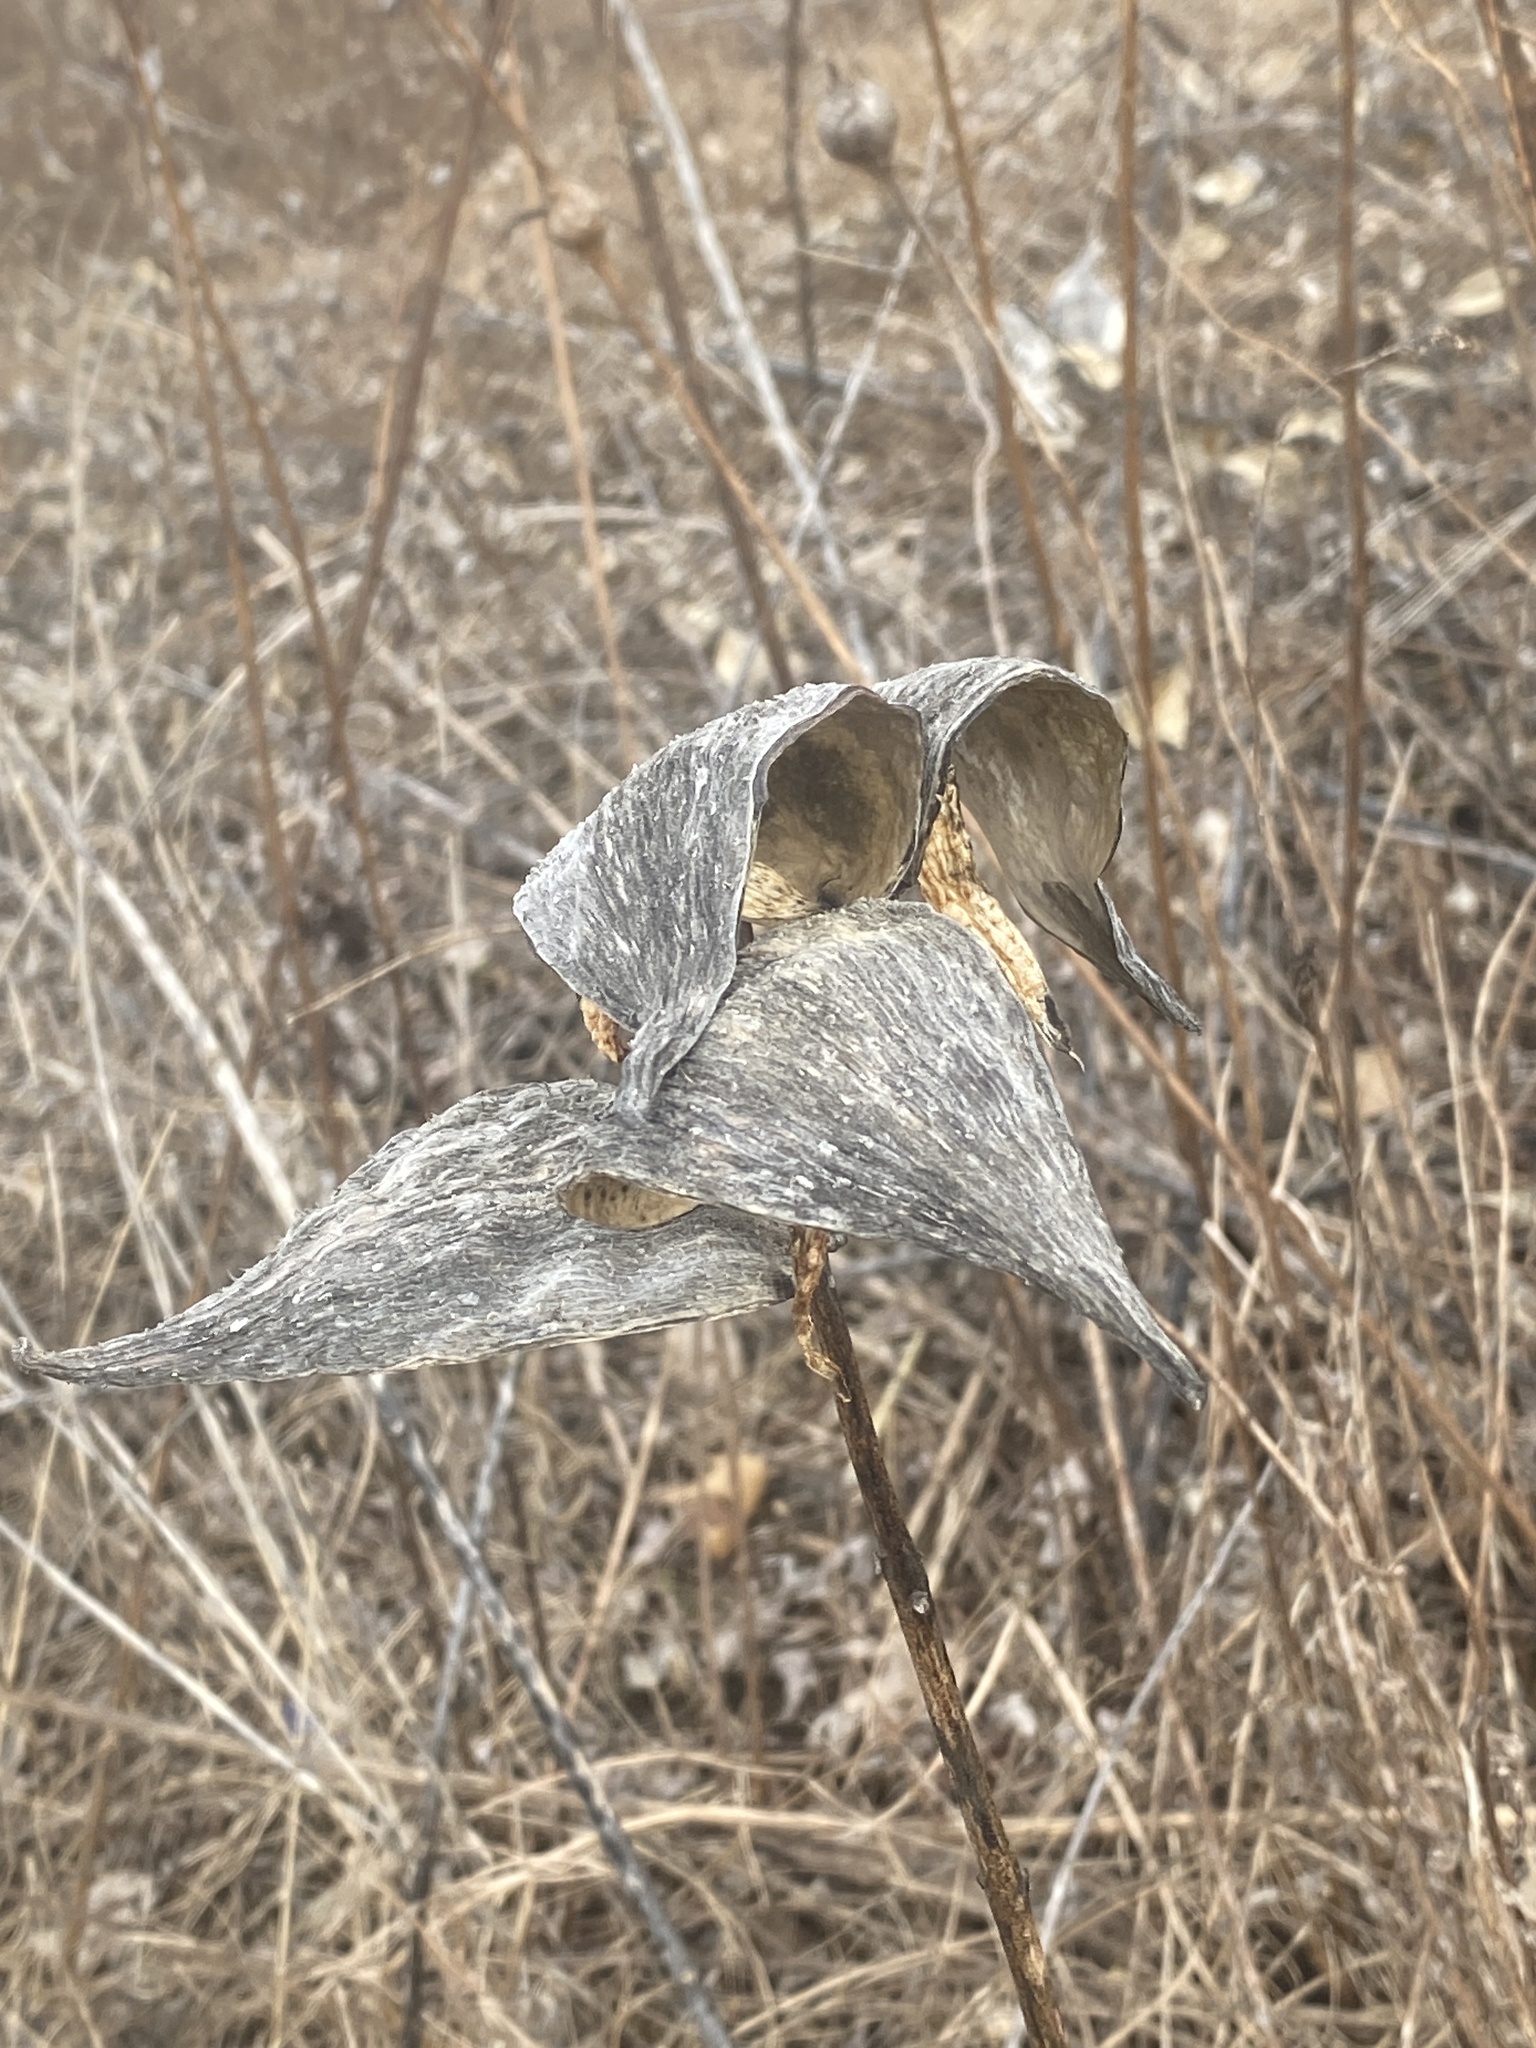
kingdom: Plantae
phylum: Tracheophyta
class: Magnoliopsida
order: Gentianales
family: Apocynaceae
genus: Asclepias
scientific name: Asclepias syriaca
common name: Common milkweed
